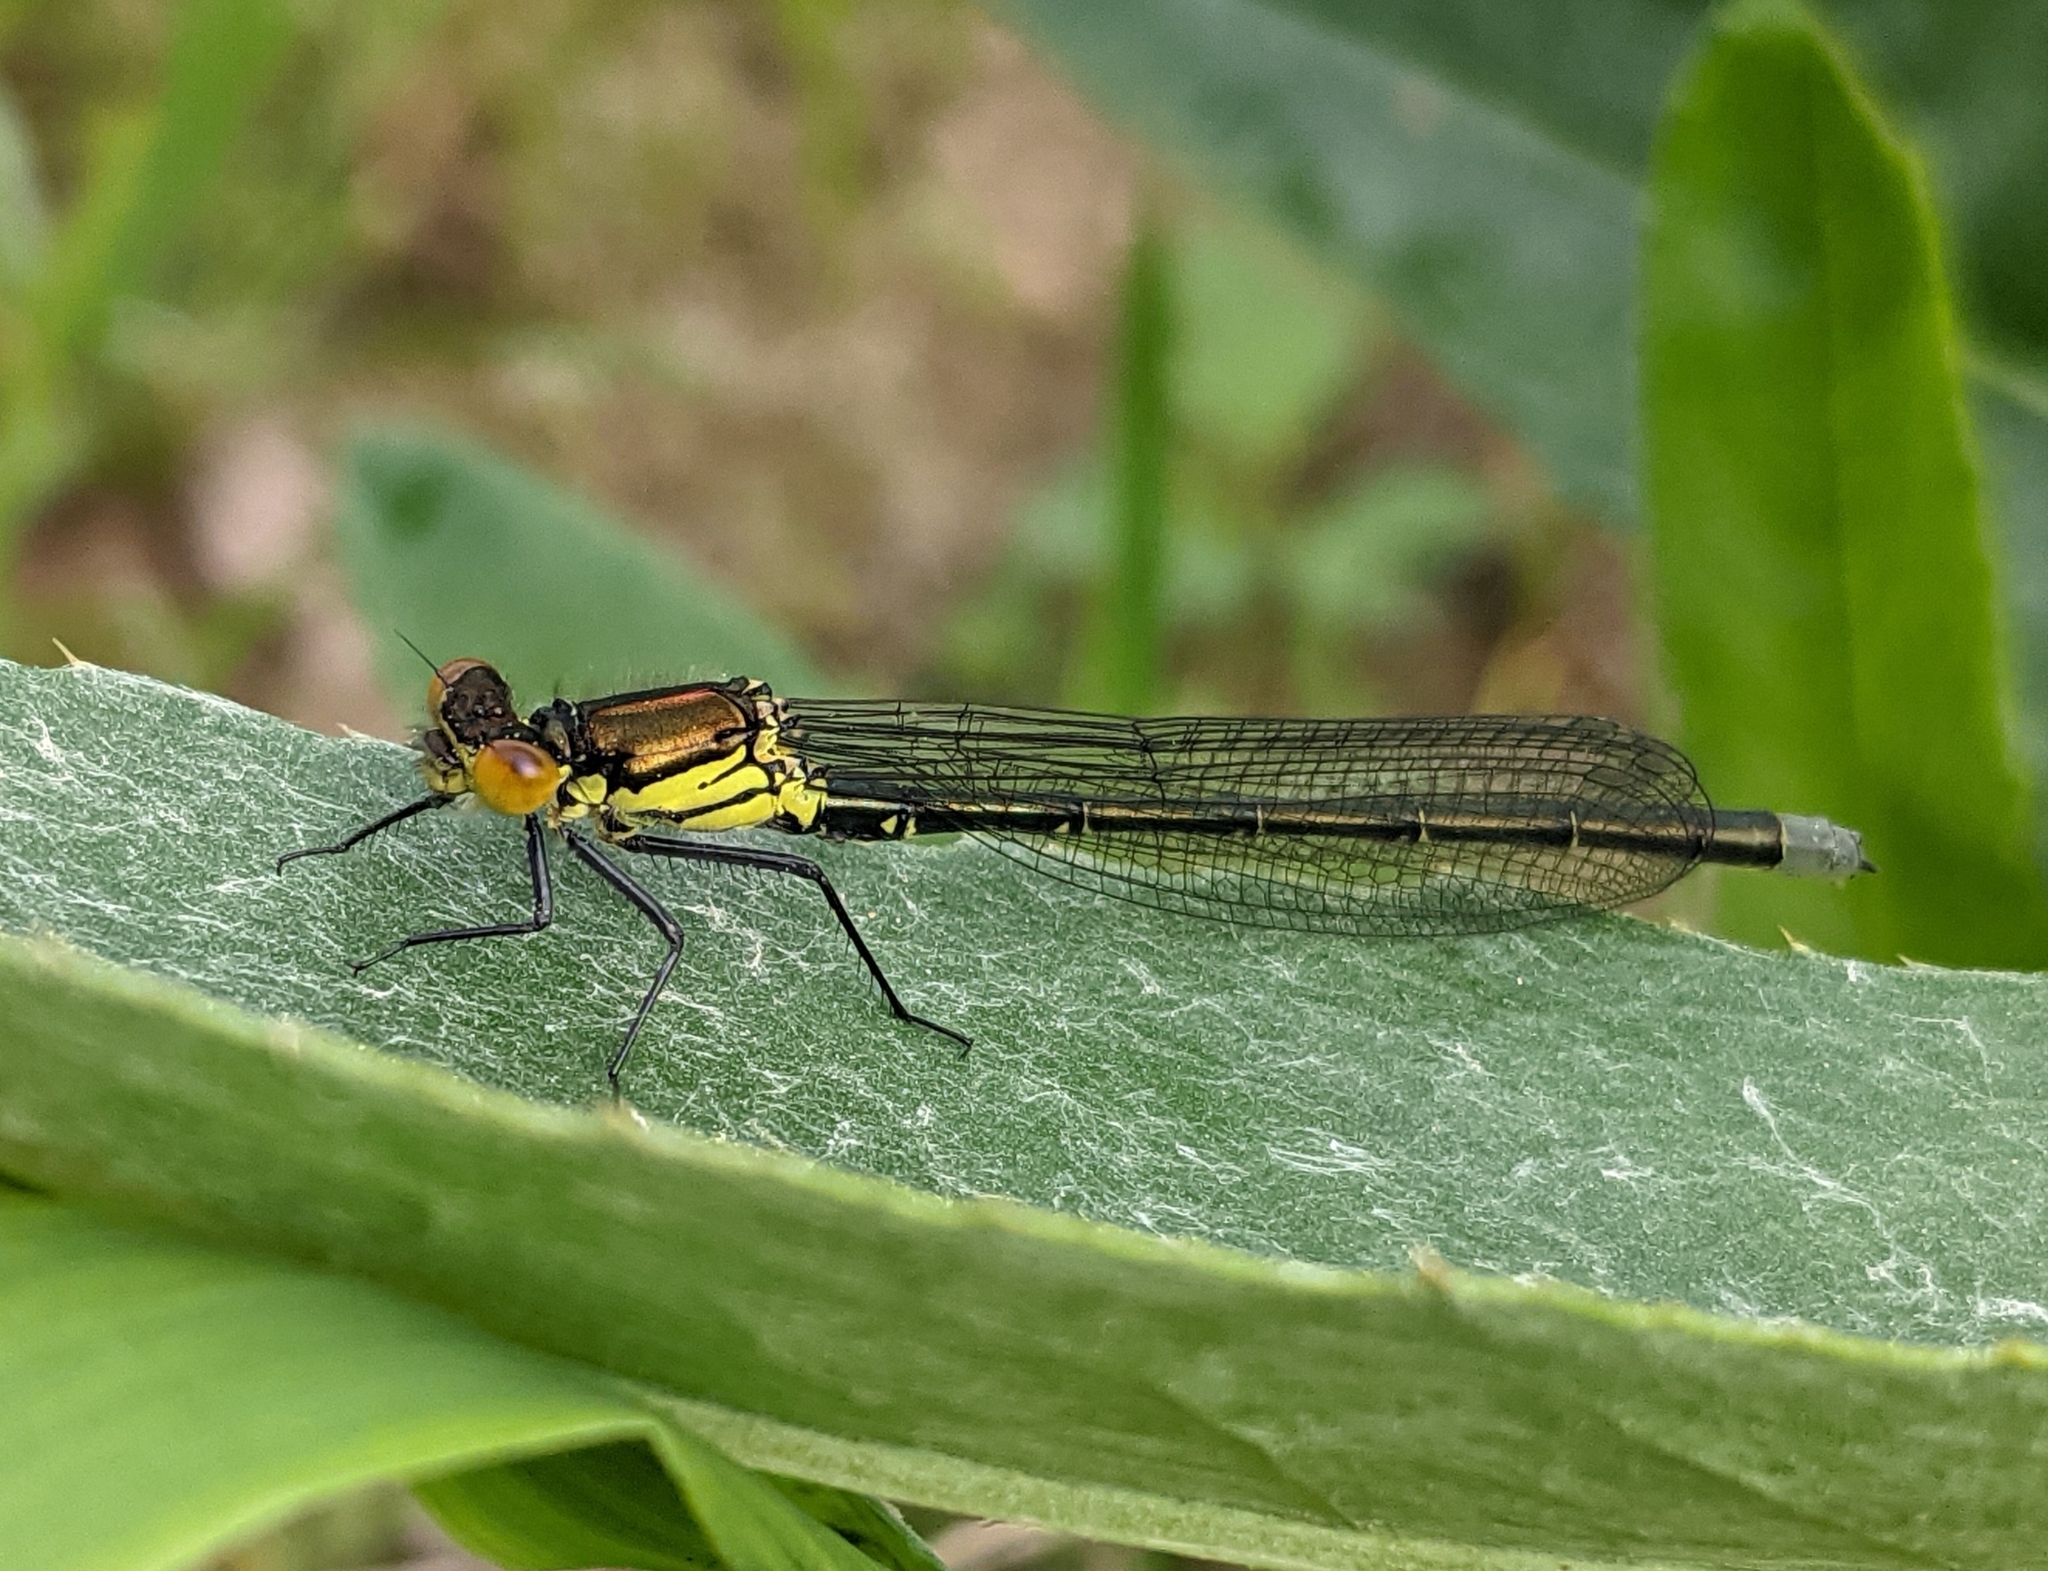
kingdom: Animalia
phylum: Arthropoda
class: Insecta
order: Odonata
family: Coenagrionidae
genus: Erythromma
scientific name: Erythromma najas
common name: Red-eyed damselfly
